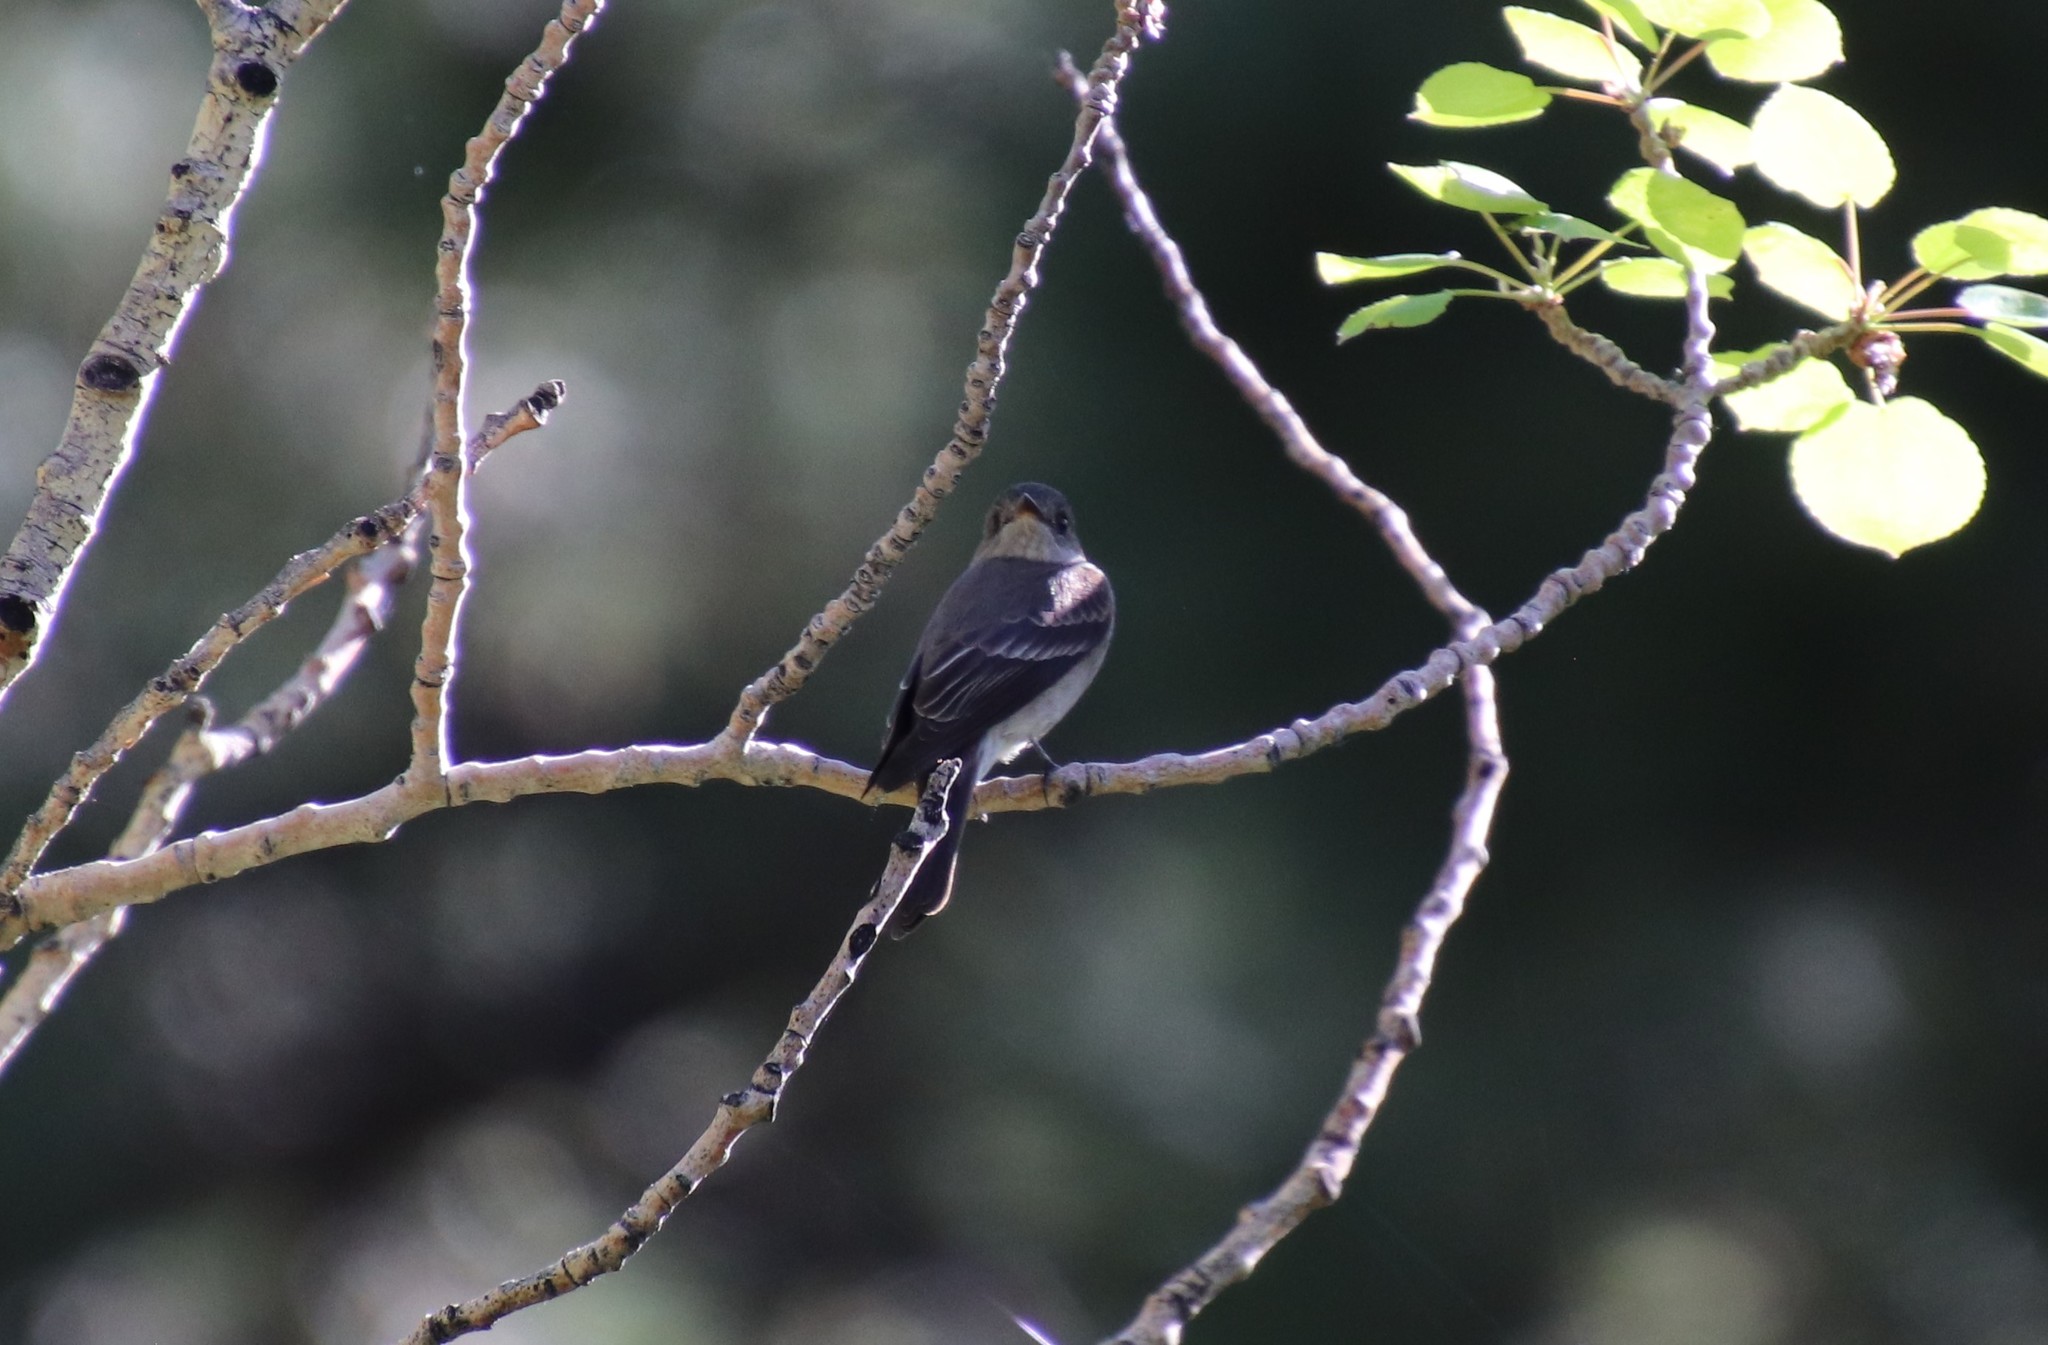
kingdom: Animalia
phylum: Chordata
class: Aves
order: Passeriformes
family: Tyrannidae
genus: Contopus
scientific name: Contopus sordidulus
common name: Western wood-pewee
